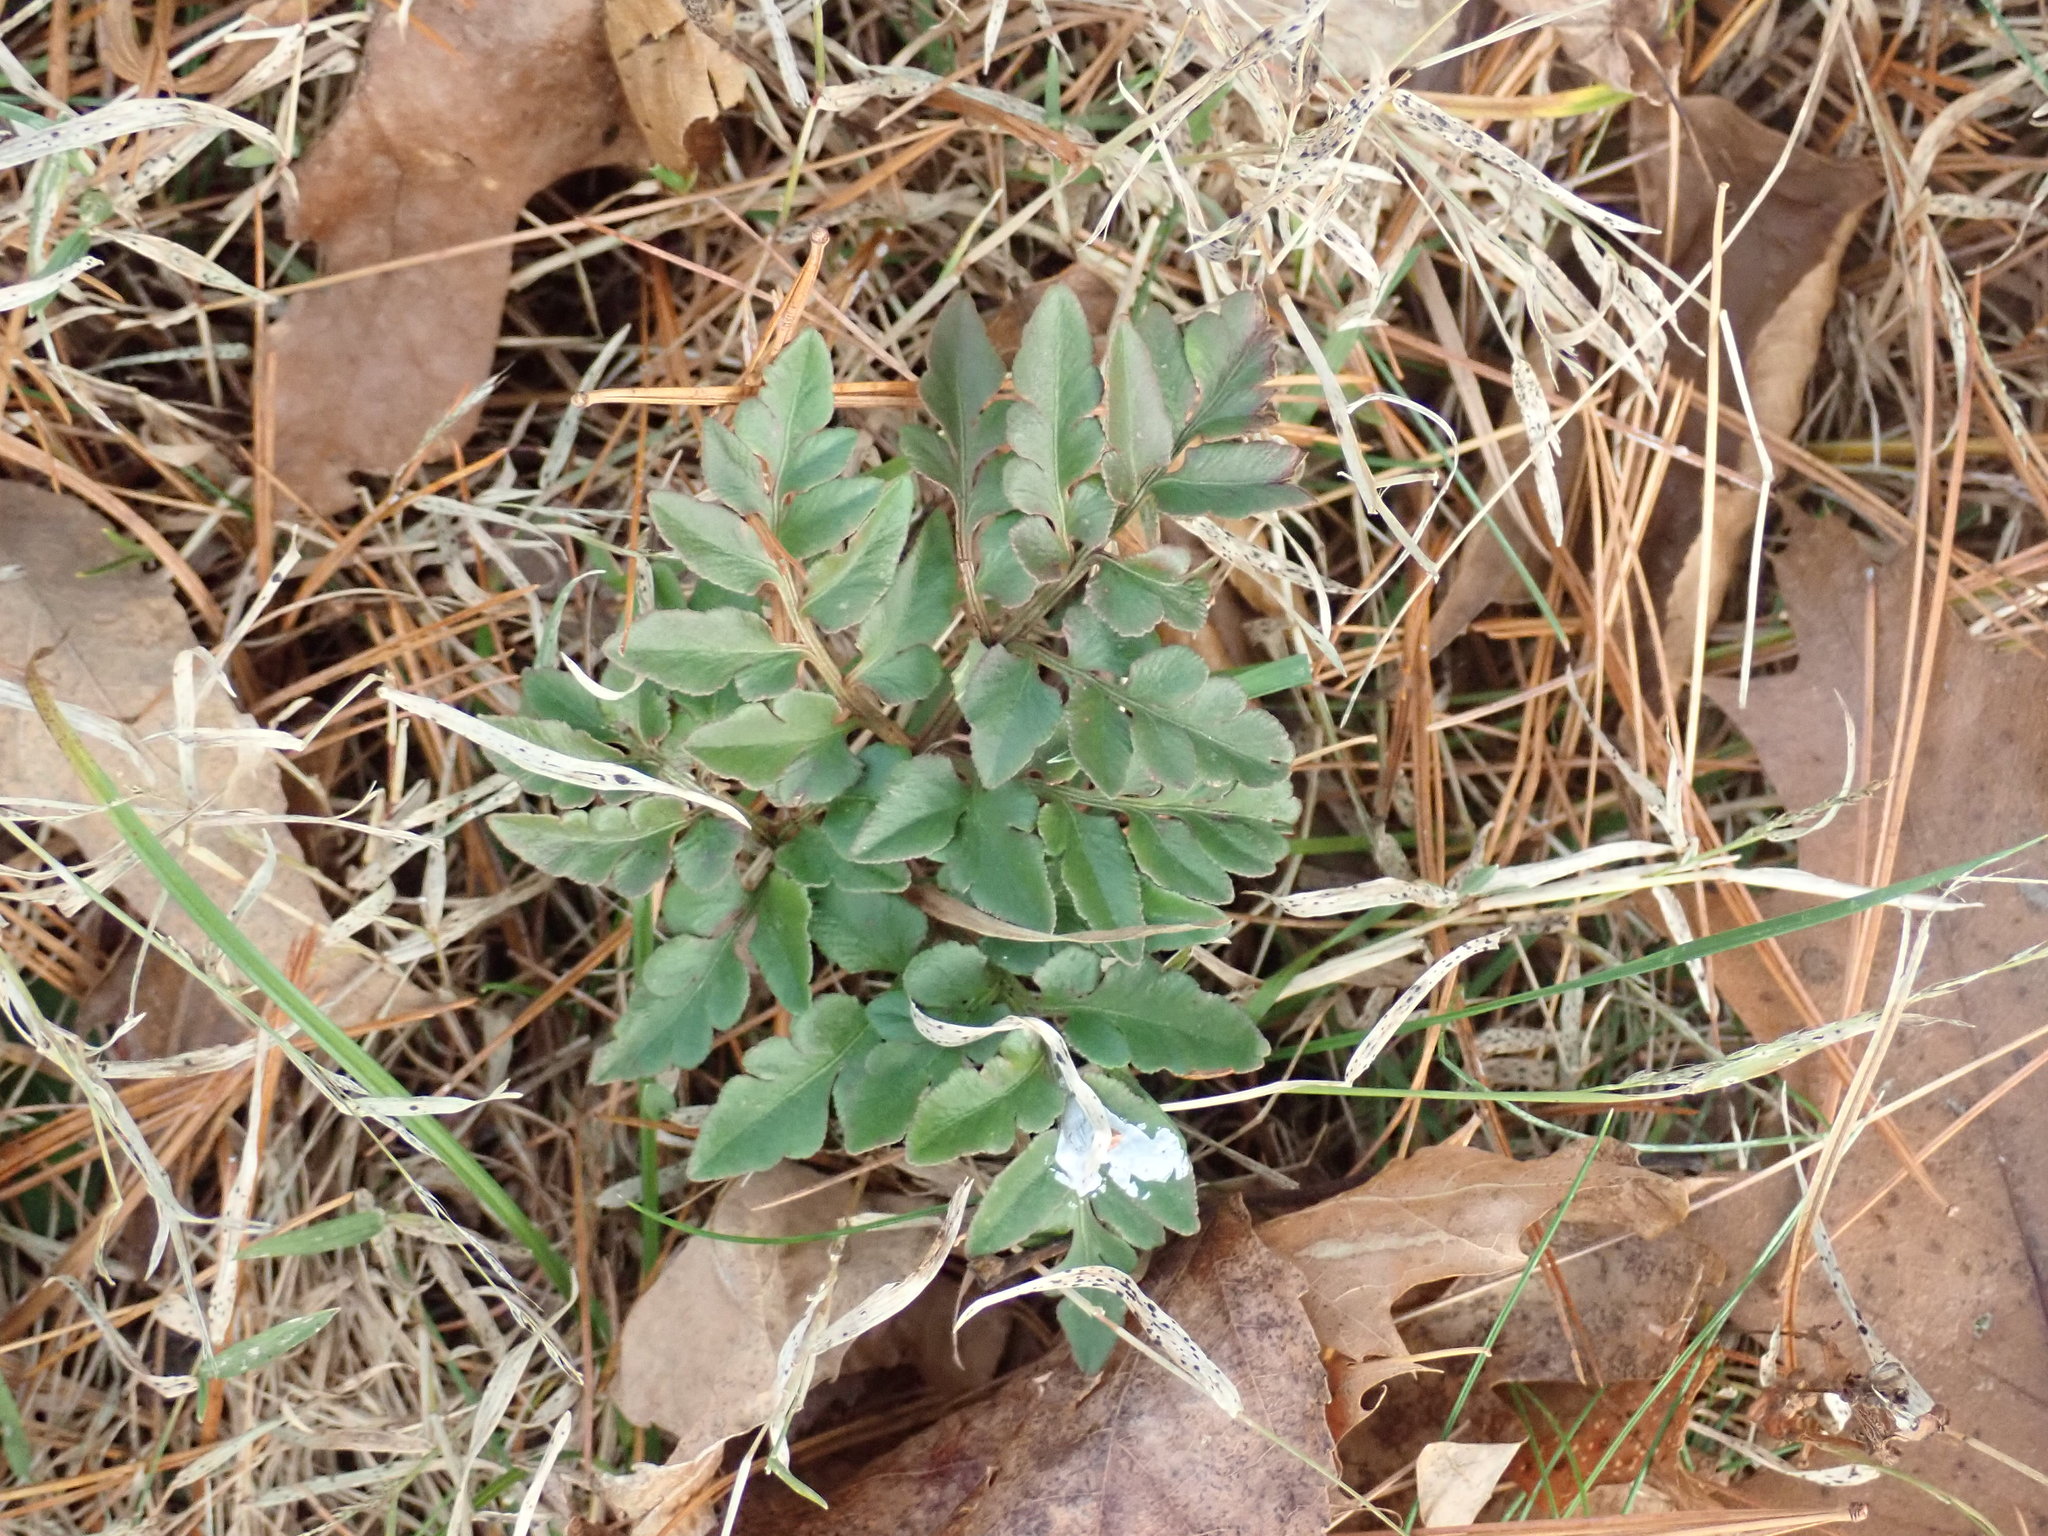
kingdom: Plantae
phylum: Tracheophyta
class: Polypodiopsida
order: Ophioglossales
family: Ophioglossaceae
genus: Sceptridium
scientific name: Sceptridium dissectum
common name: Cut-leaved grapefern
